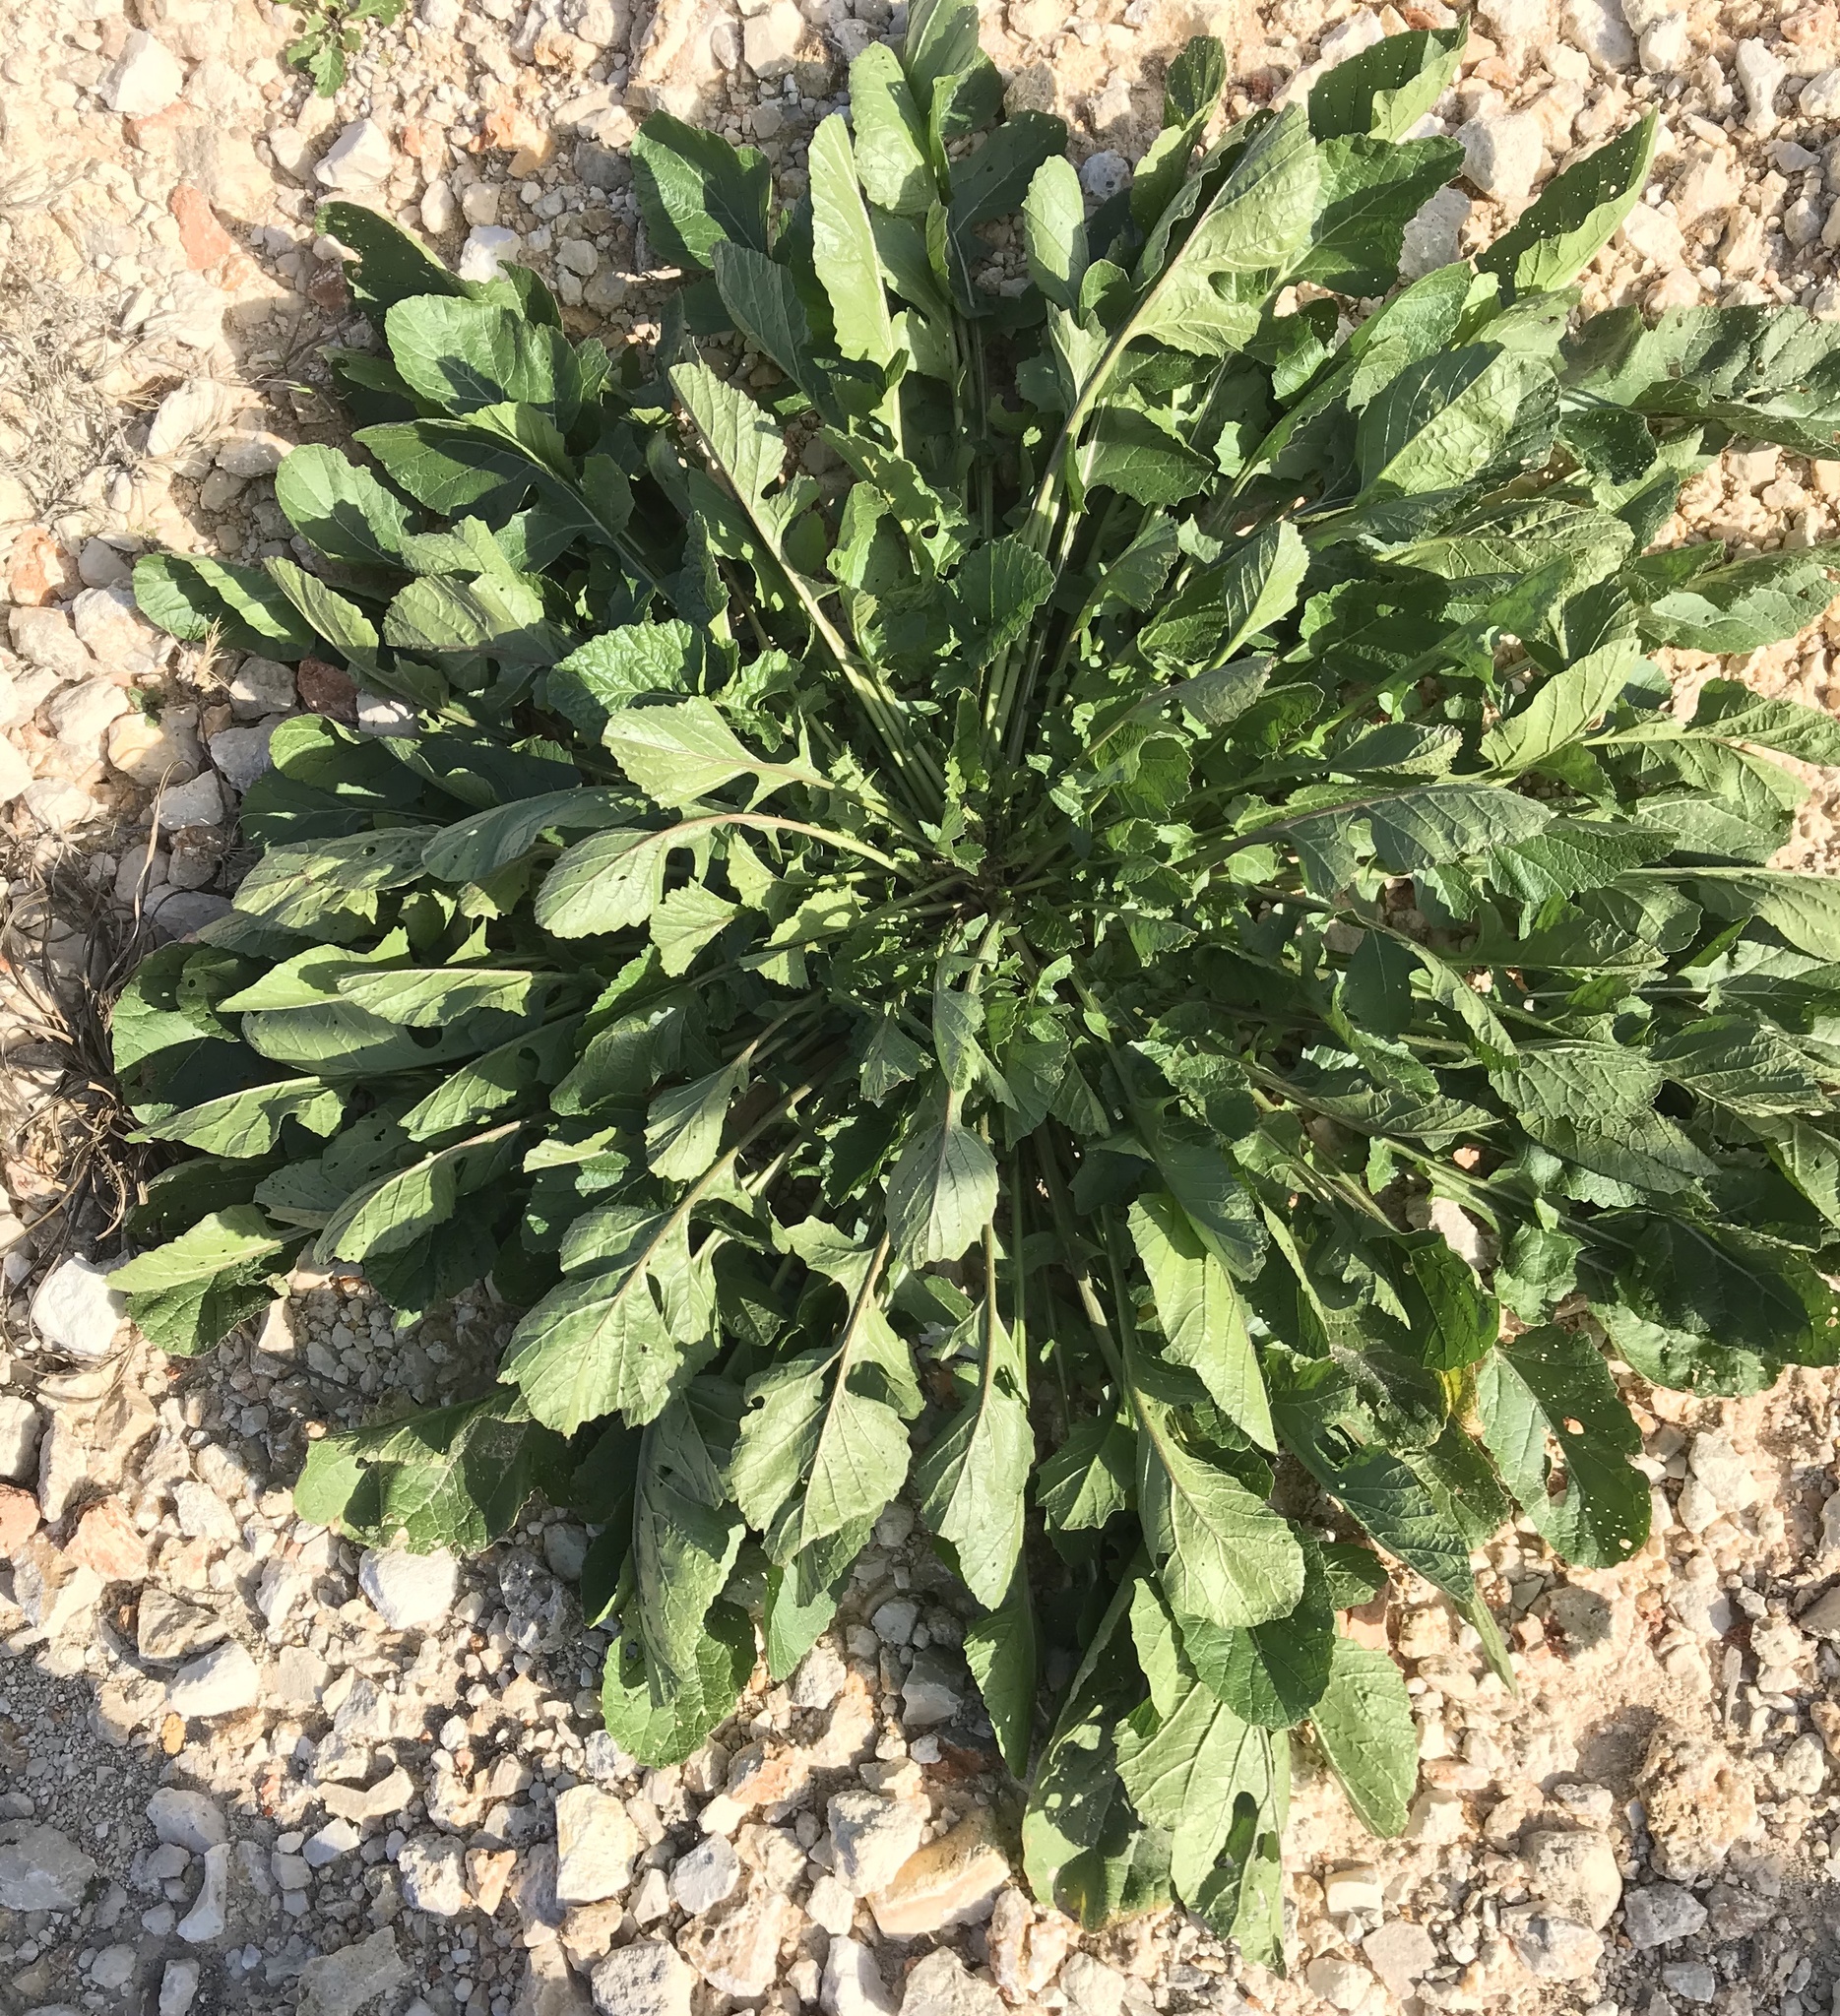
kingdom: Plantae
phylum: Tracheophyta
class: Magnoliopsida
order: Brassicales
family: Brassicaceae
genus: Rapistrum
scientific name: Rapistrum rugosum
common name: Annual bastardcabbage
